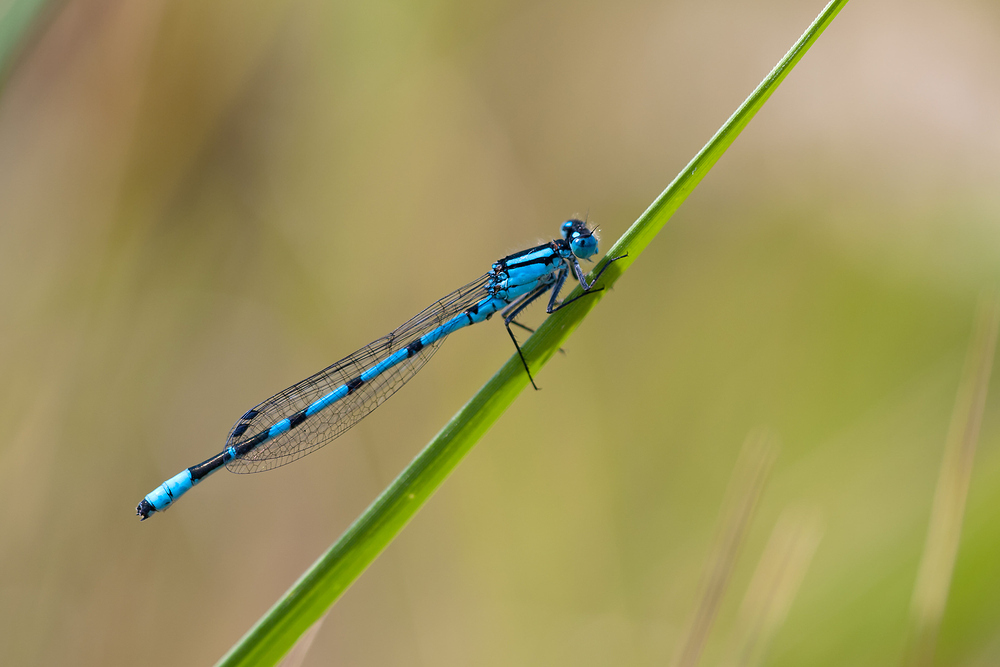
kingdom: Animalia
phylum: Arthropoda
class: Insecta
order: Odonata
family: Coenagrionidae
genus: Enallagma
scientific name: Enallagma cyathigerum
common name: Common blue damselfly
